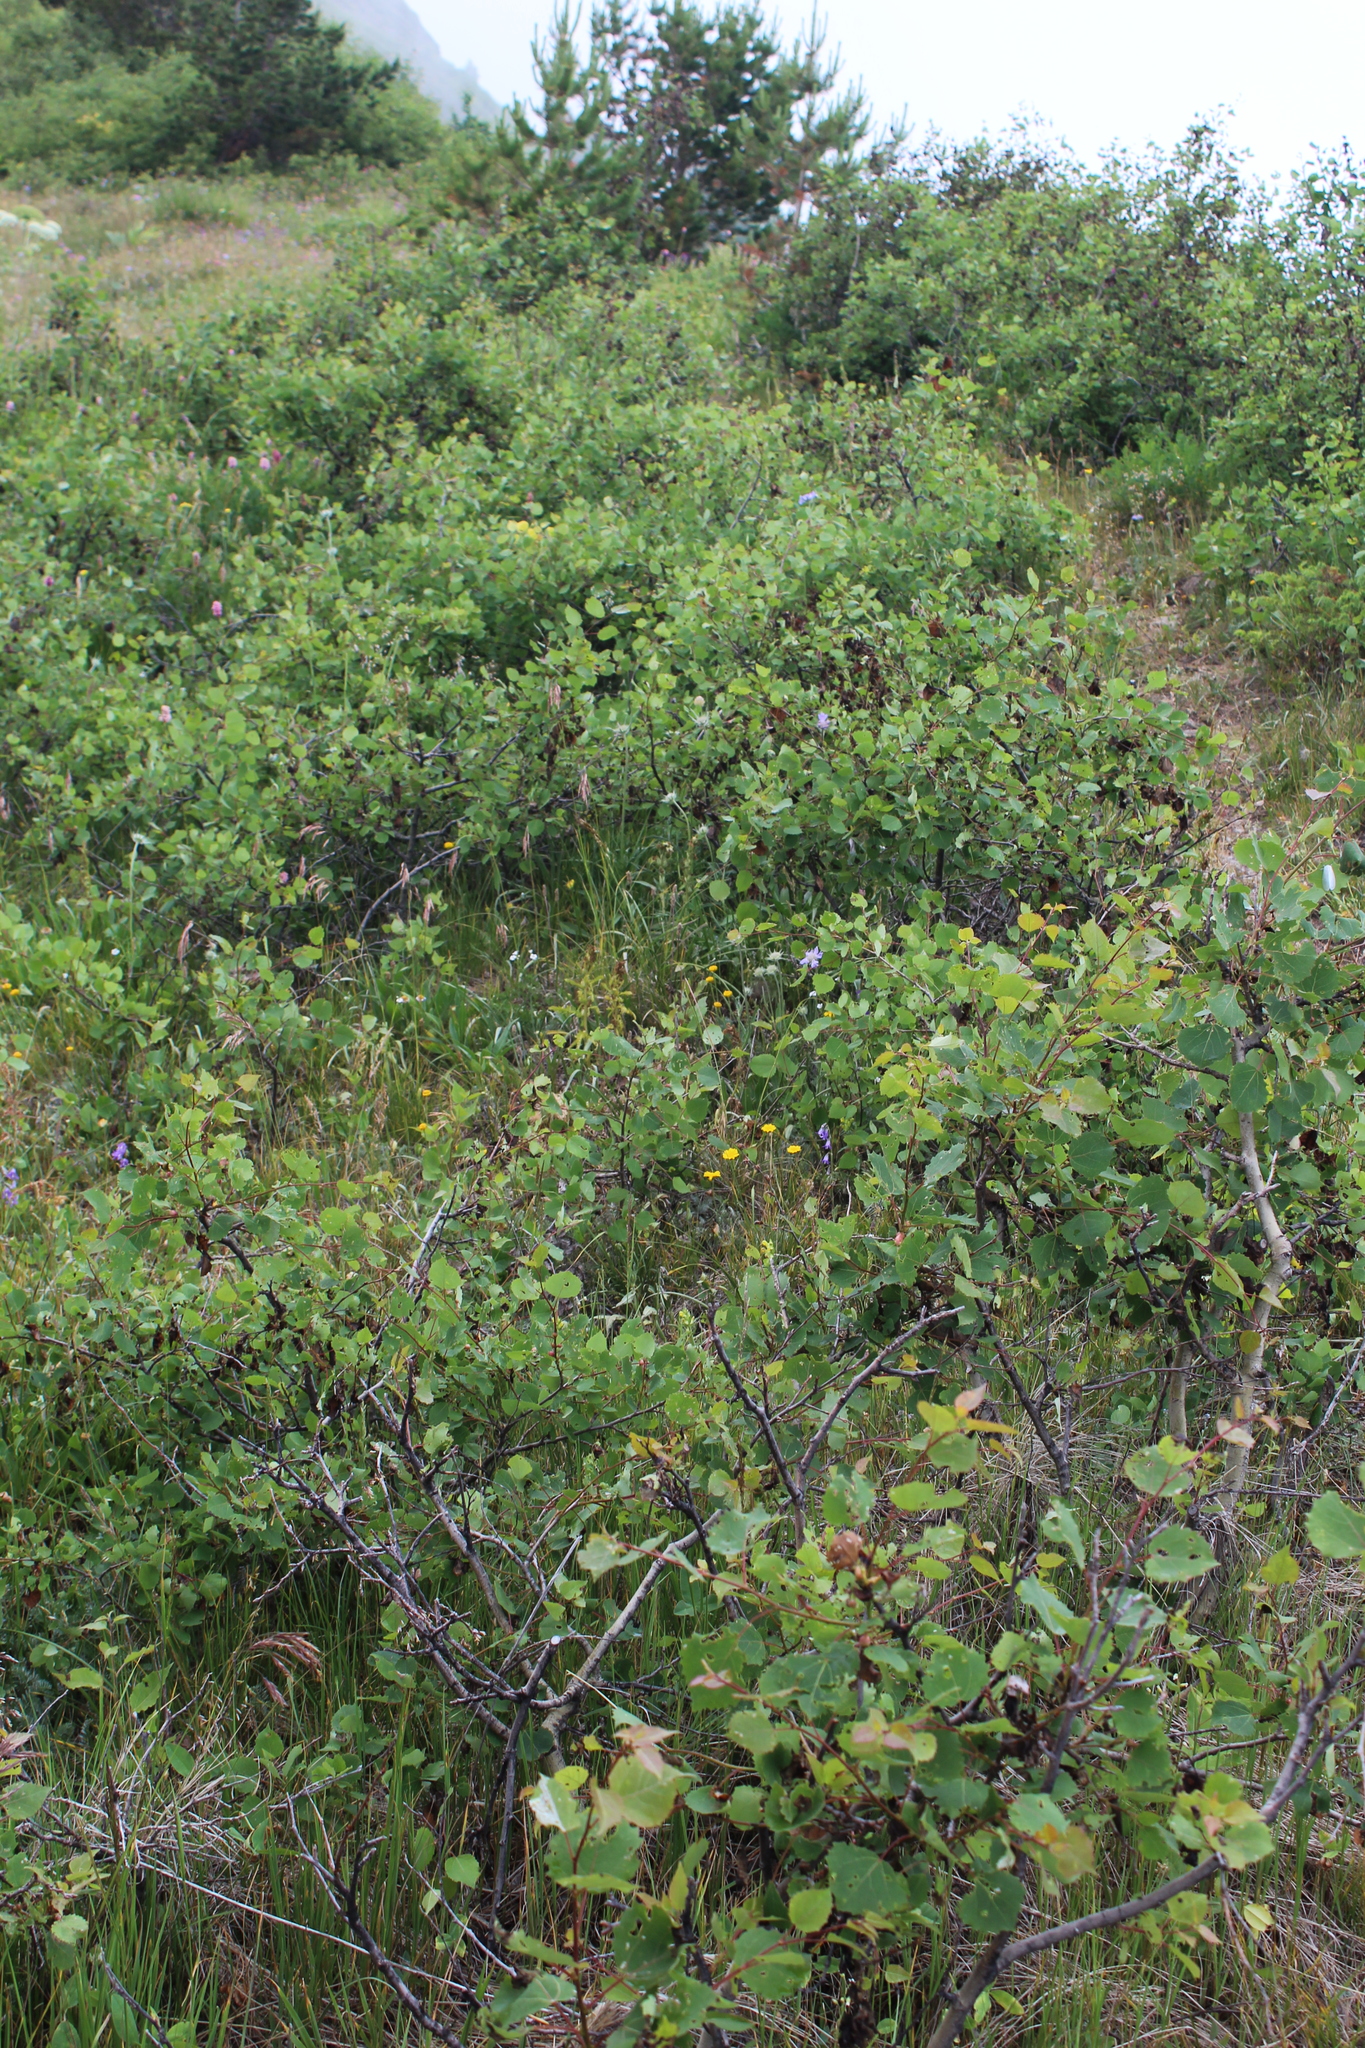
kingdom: Plantae
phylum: Tracheophyta
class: Magnoliopsida
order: Malpighiales
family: Salicaceae
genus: Populus
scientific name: Populus tremula
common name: European aspen
